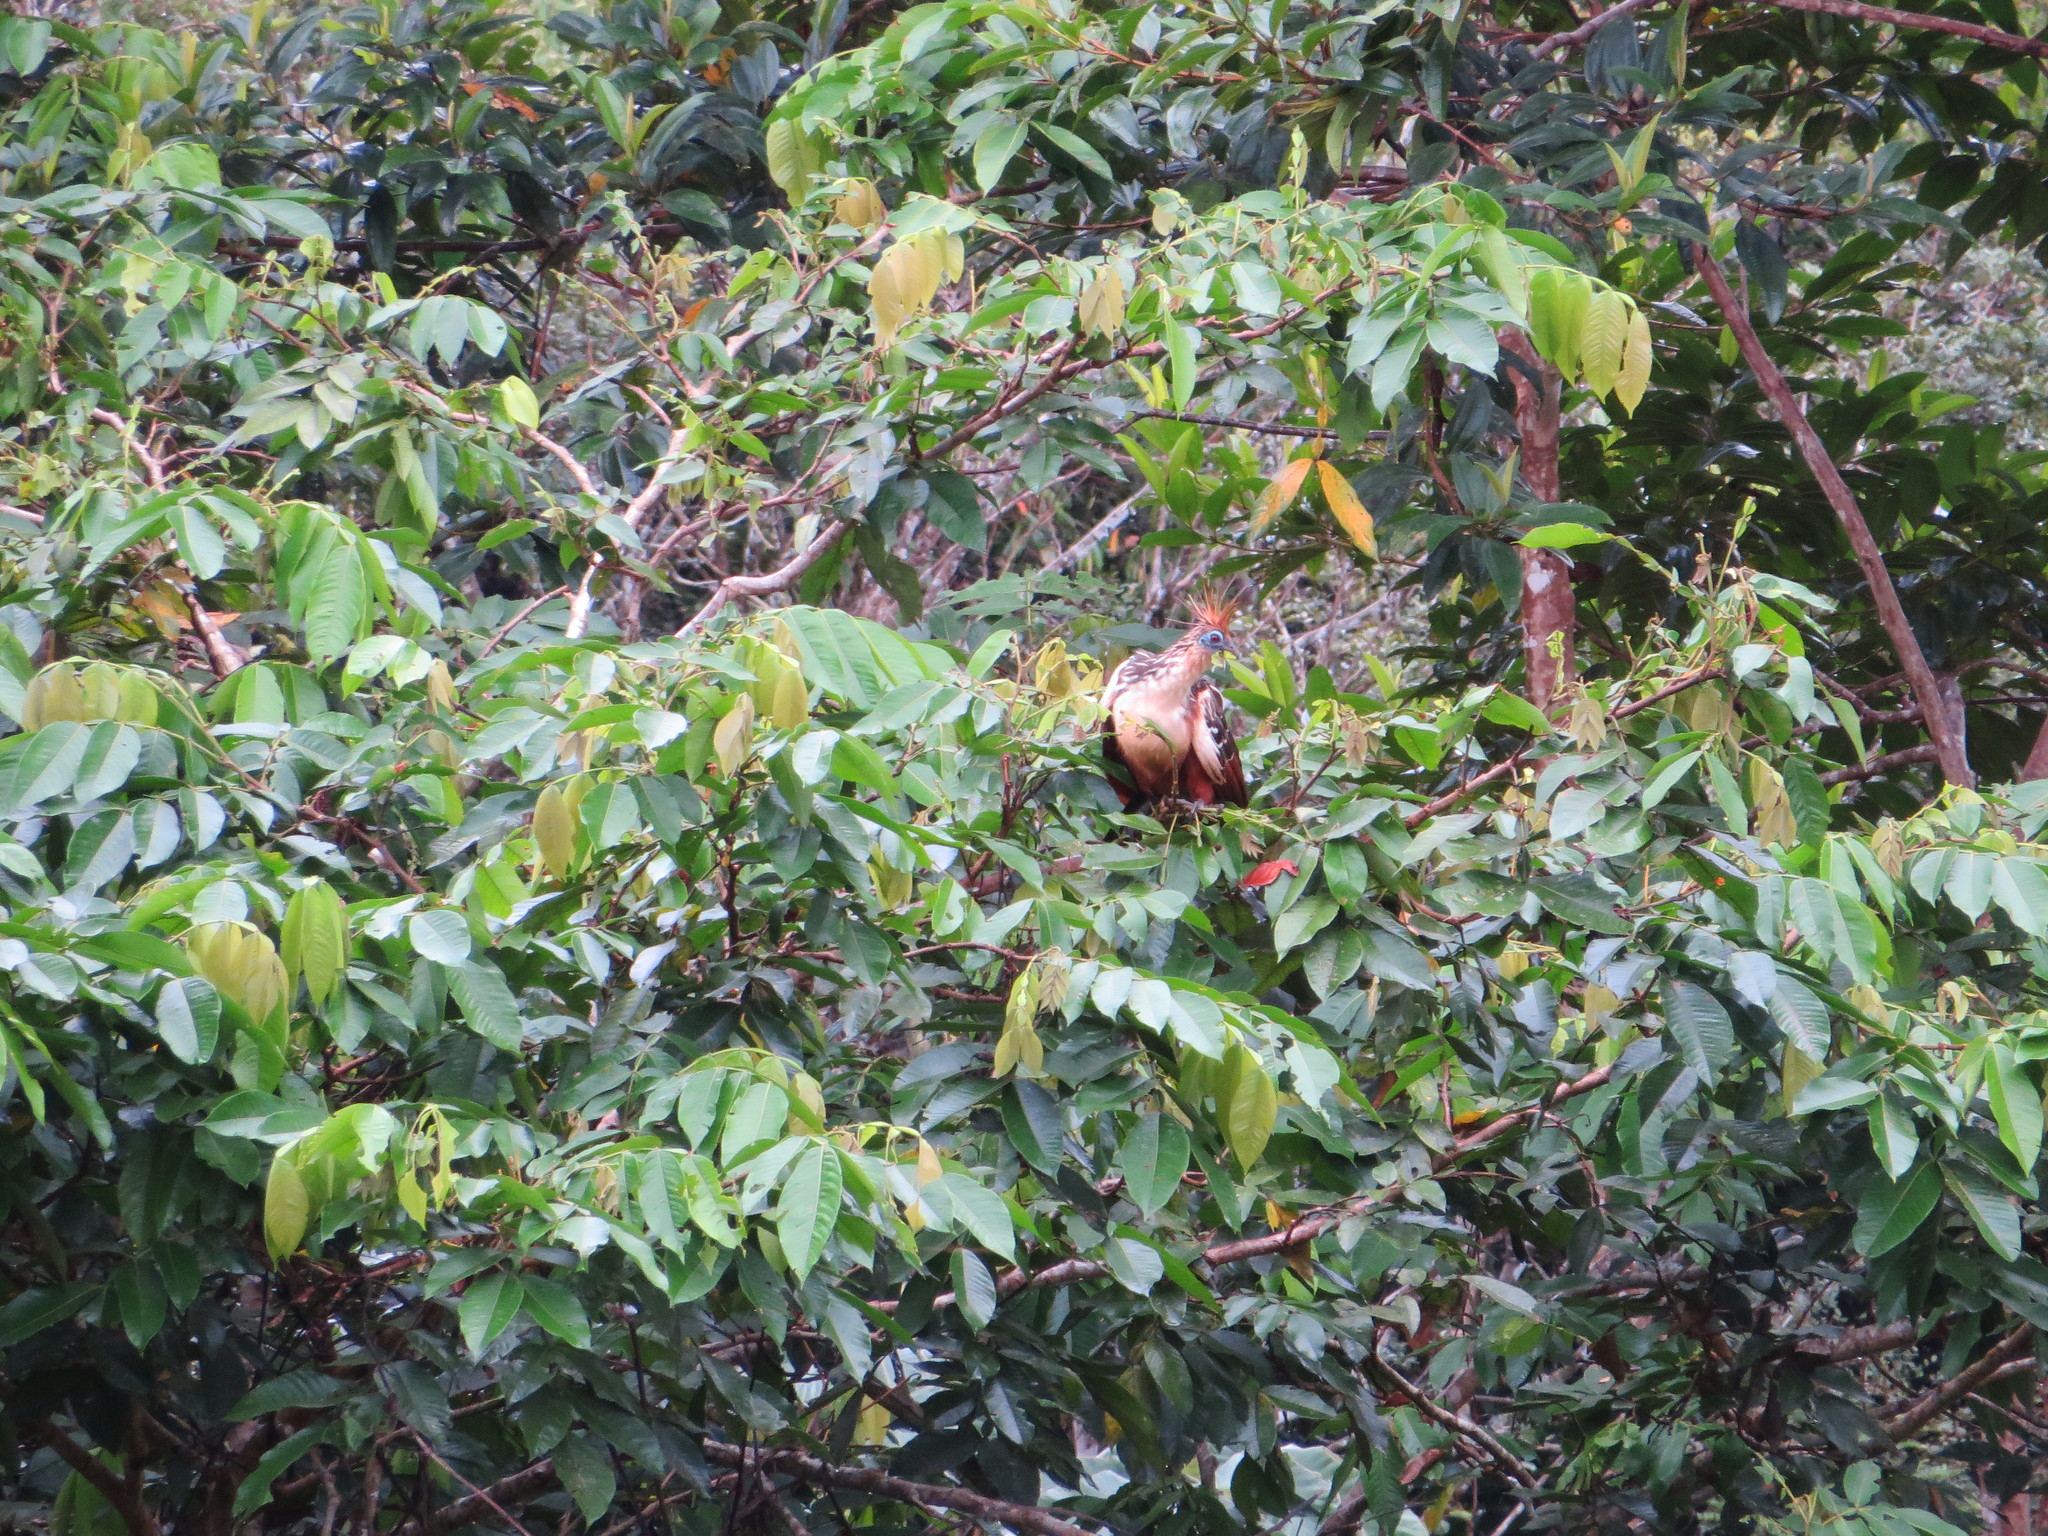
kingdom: Animalia
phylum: Chordata
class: Aves
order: Opisthocomiformes
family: Opisthocomidae
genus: Opisthocomus
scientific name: Opisthocomus hoazin
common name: Hoatzin
